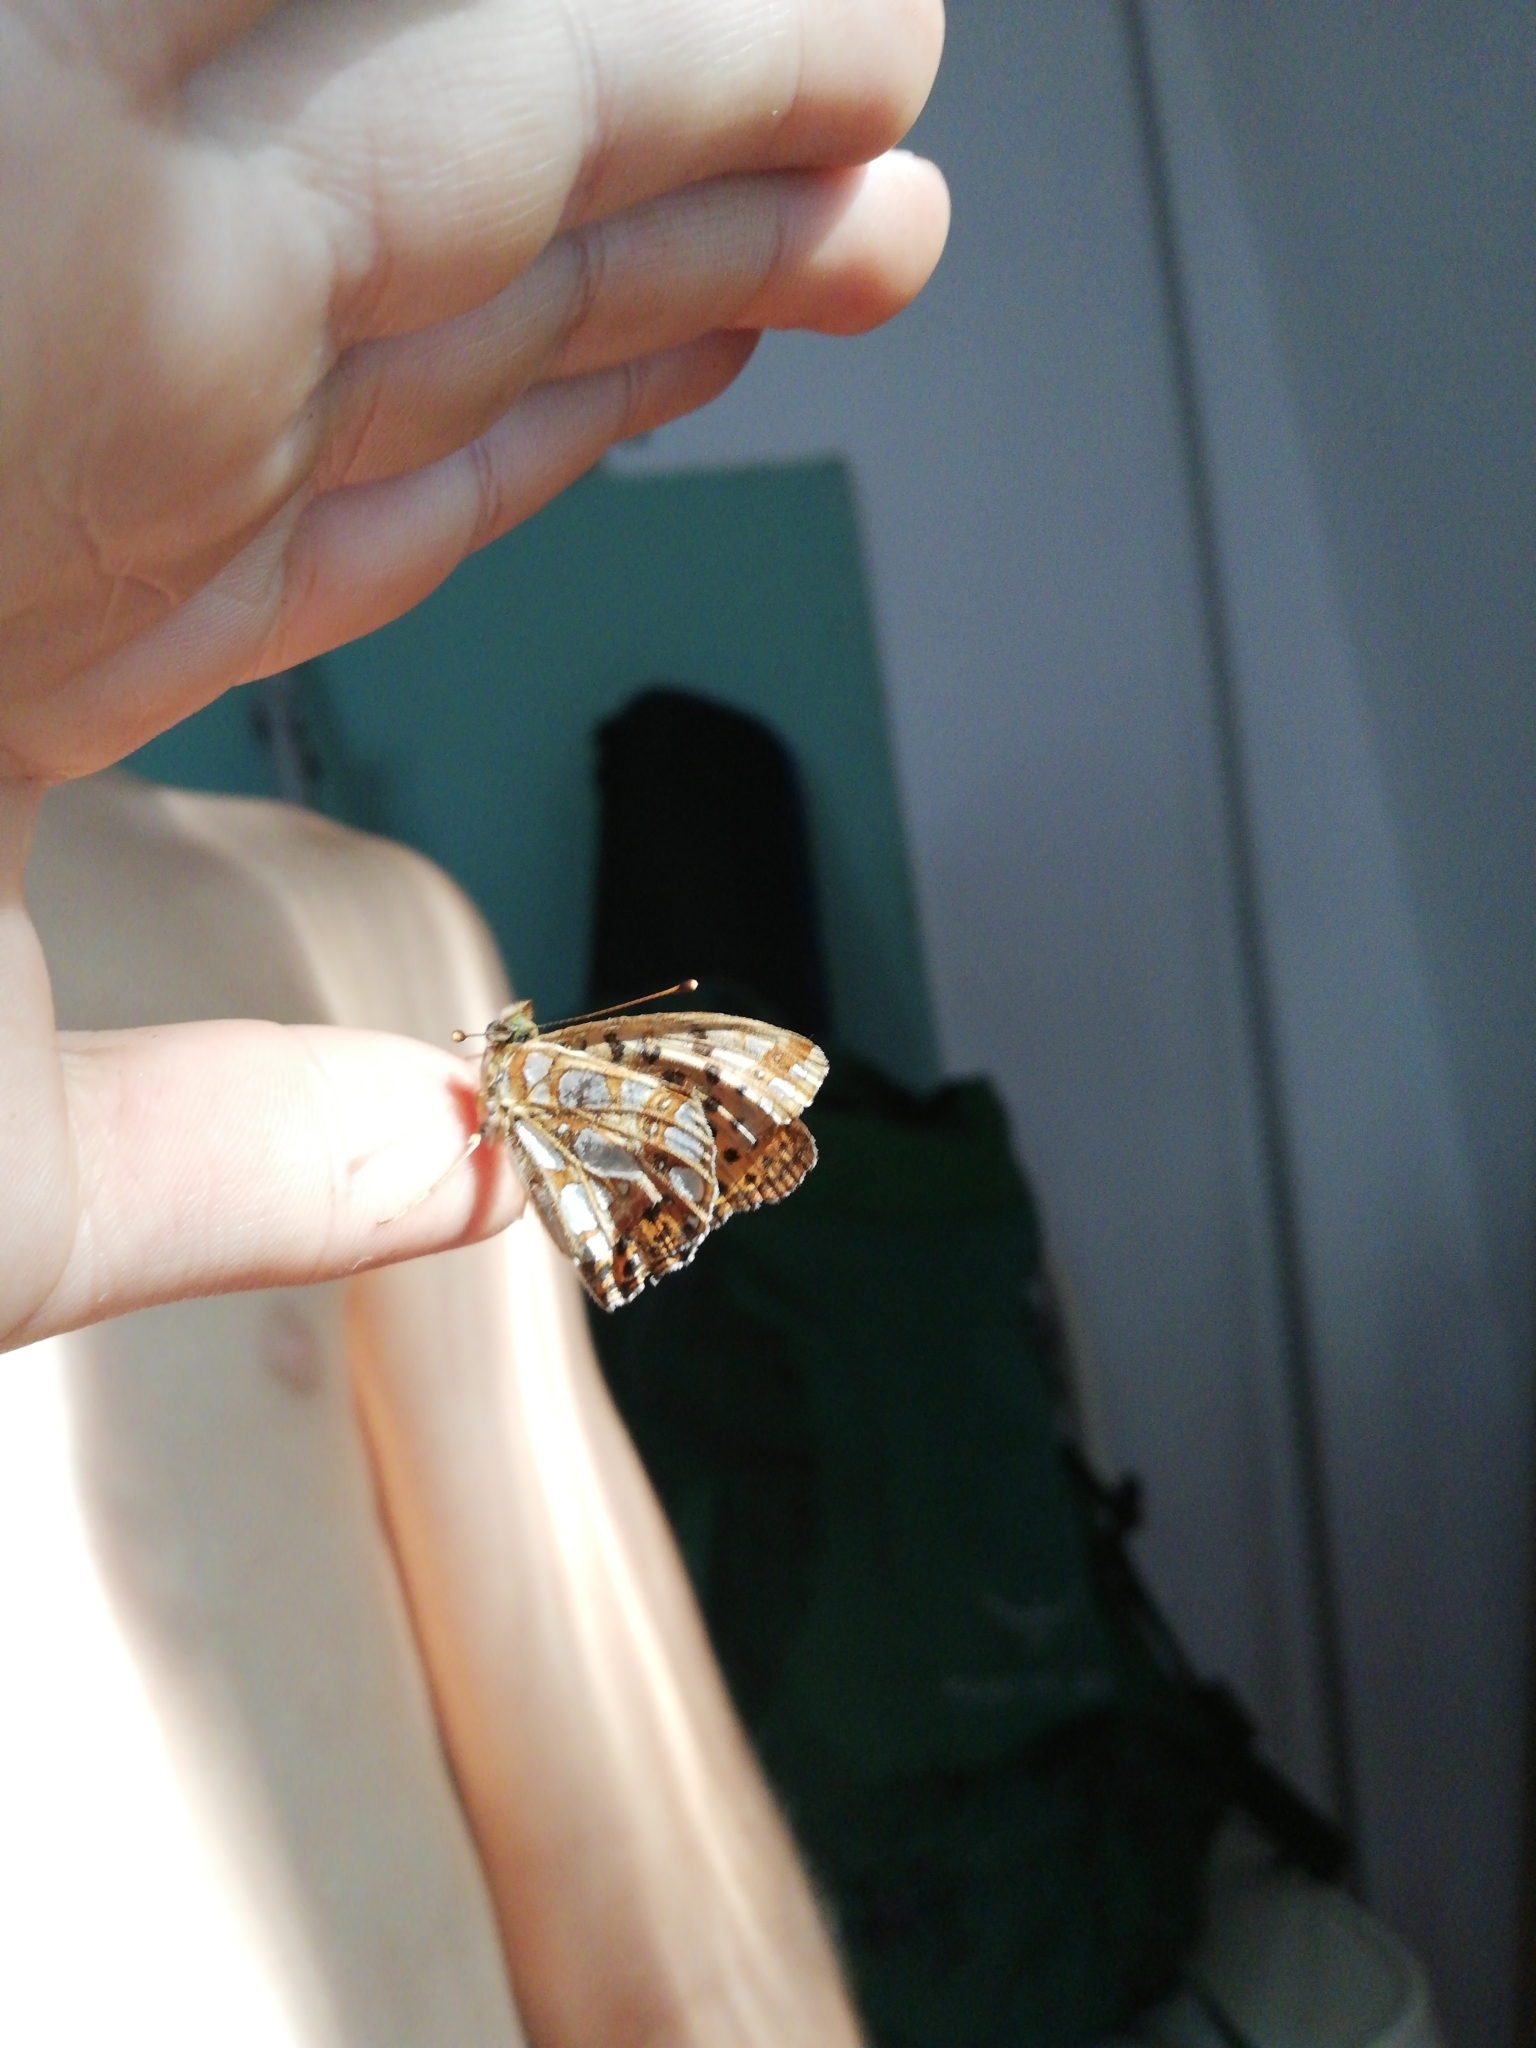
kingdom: Animalia
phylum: Arthropoda
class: Insecta
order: Lepidoptera
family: Nymphalidae
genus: Issoria
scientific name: Issoria lathonia
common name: Queen of spain fritillary
